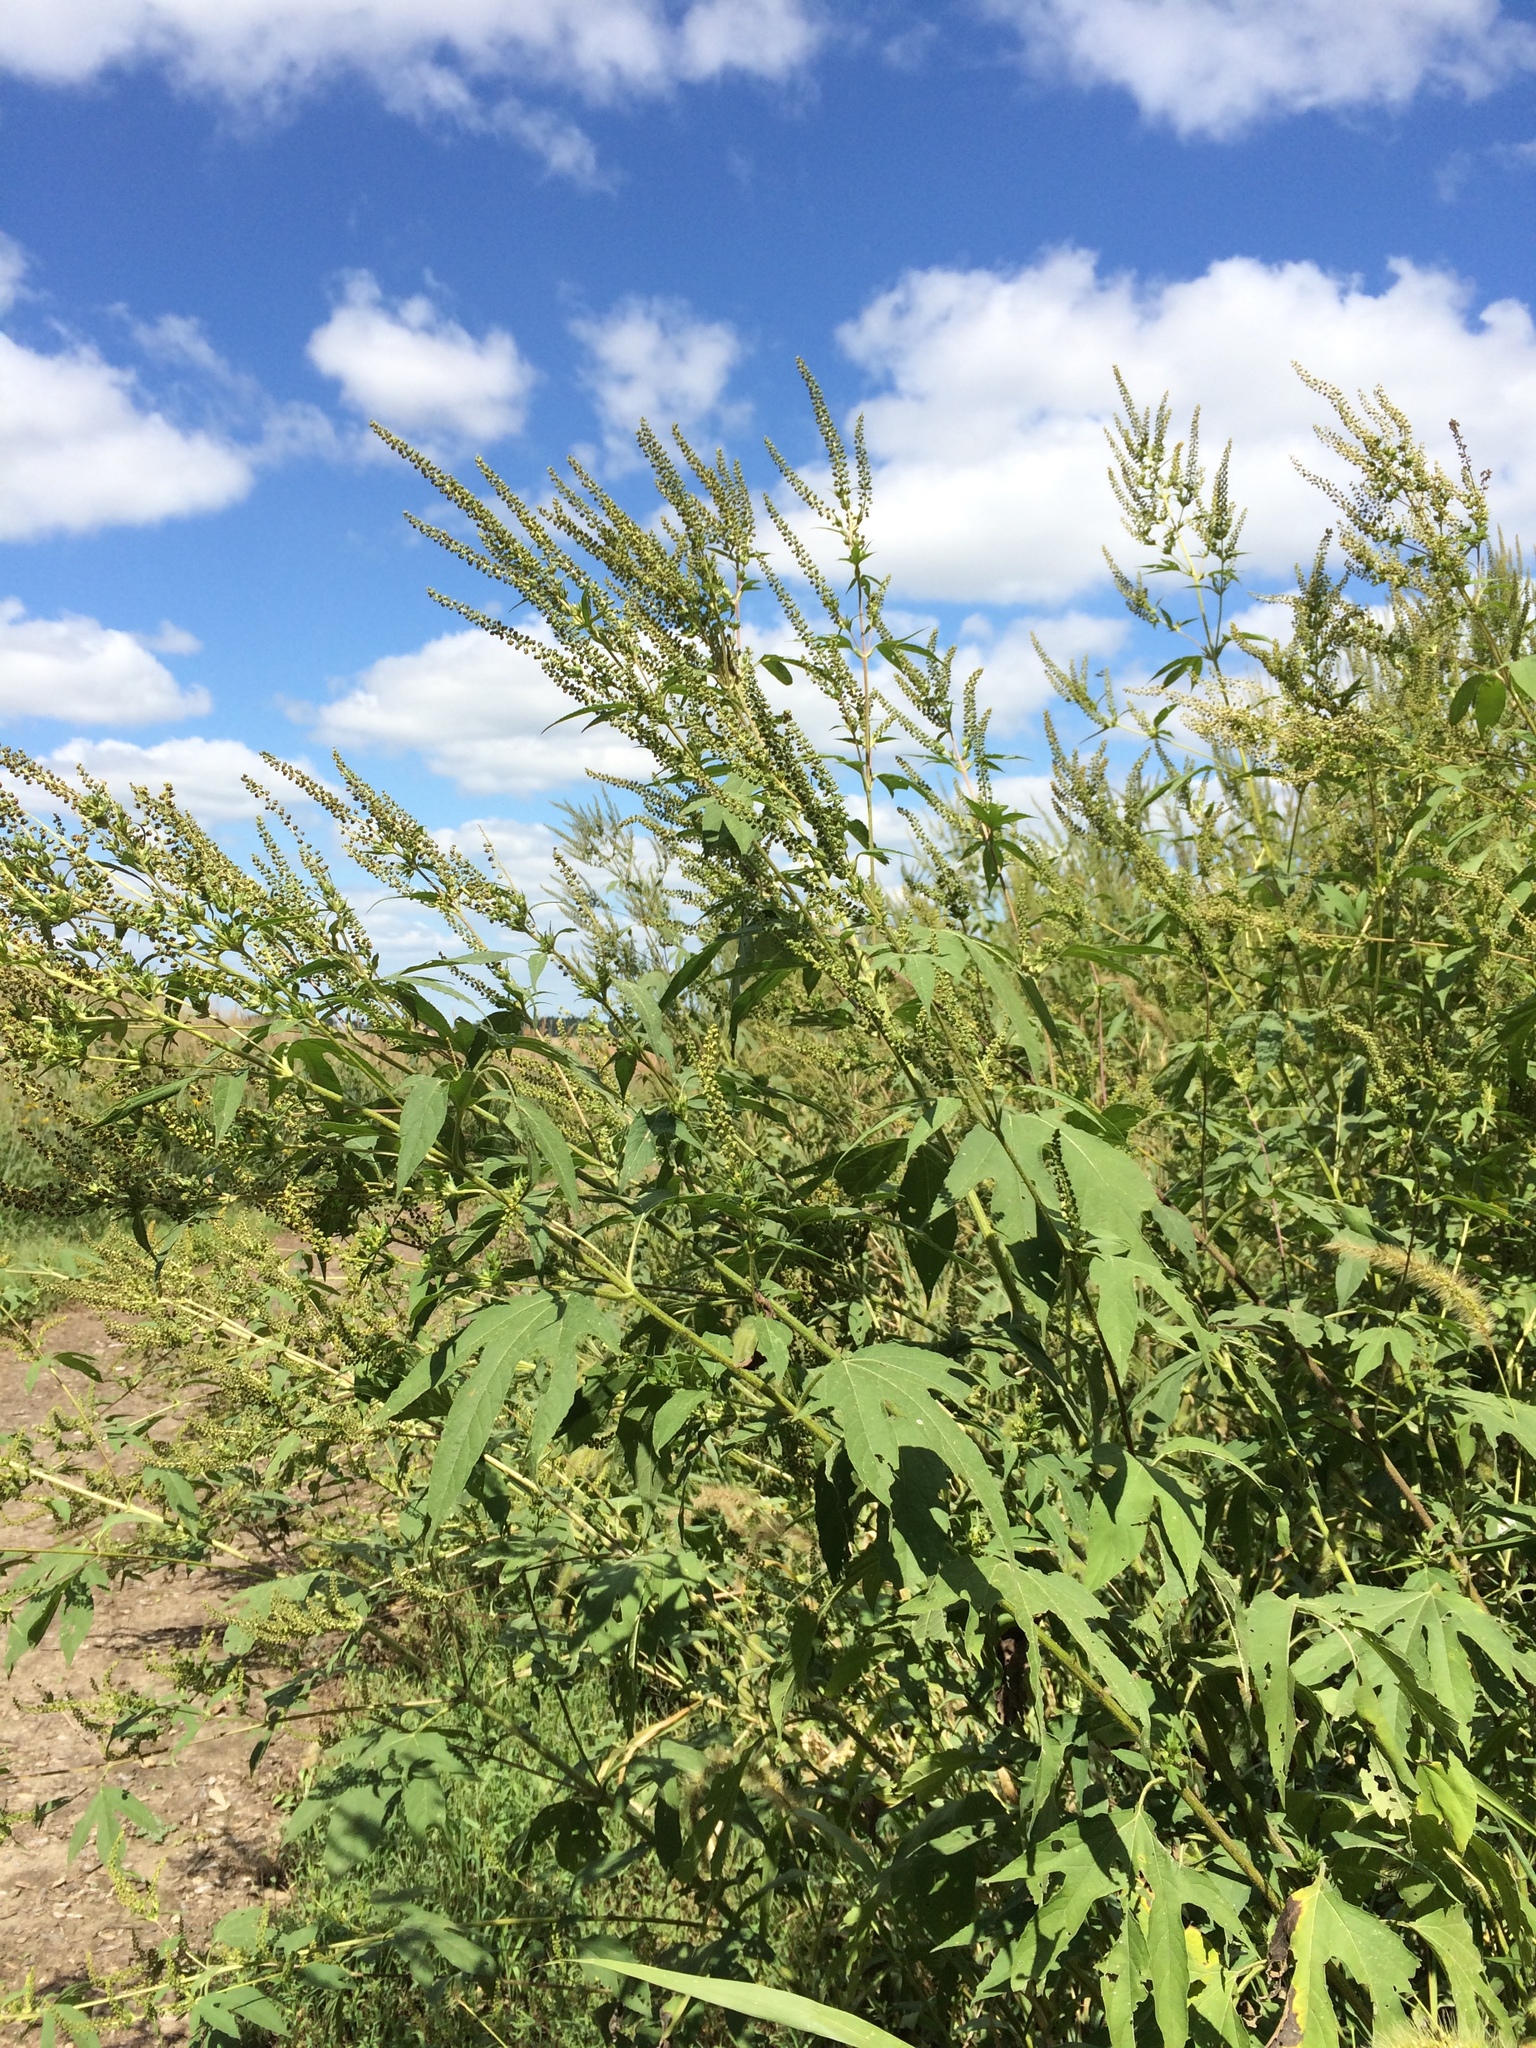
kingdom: Plantae
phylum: Tracheophyta
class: Magnoliopsida
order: Asterales
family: Asteraceae
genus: Ambrosia
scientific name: Ambrosia trifida
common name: Giant ragweed
